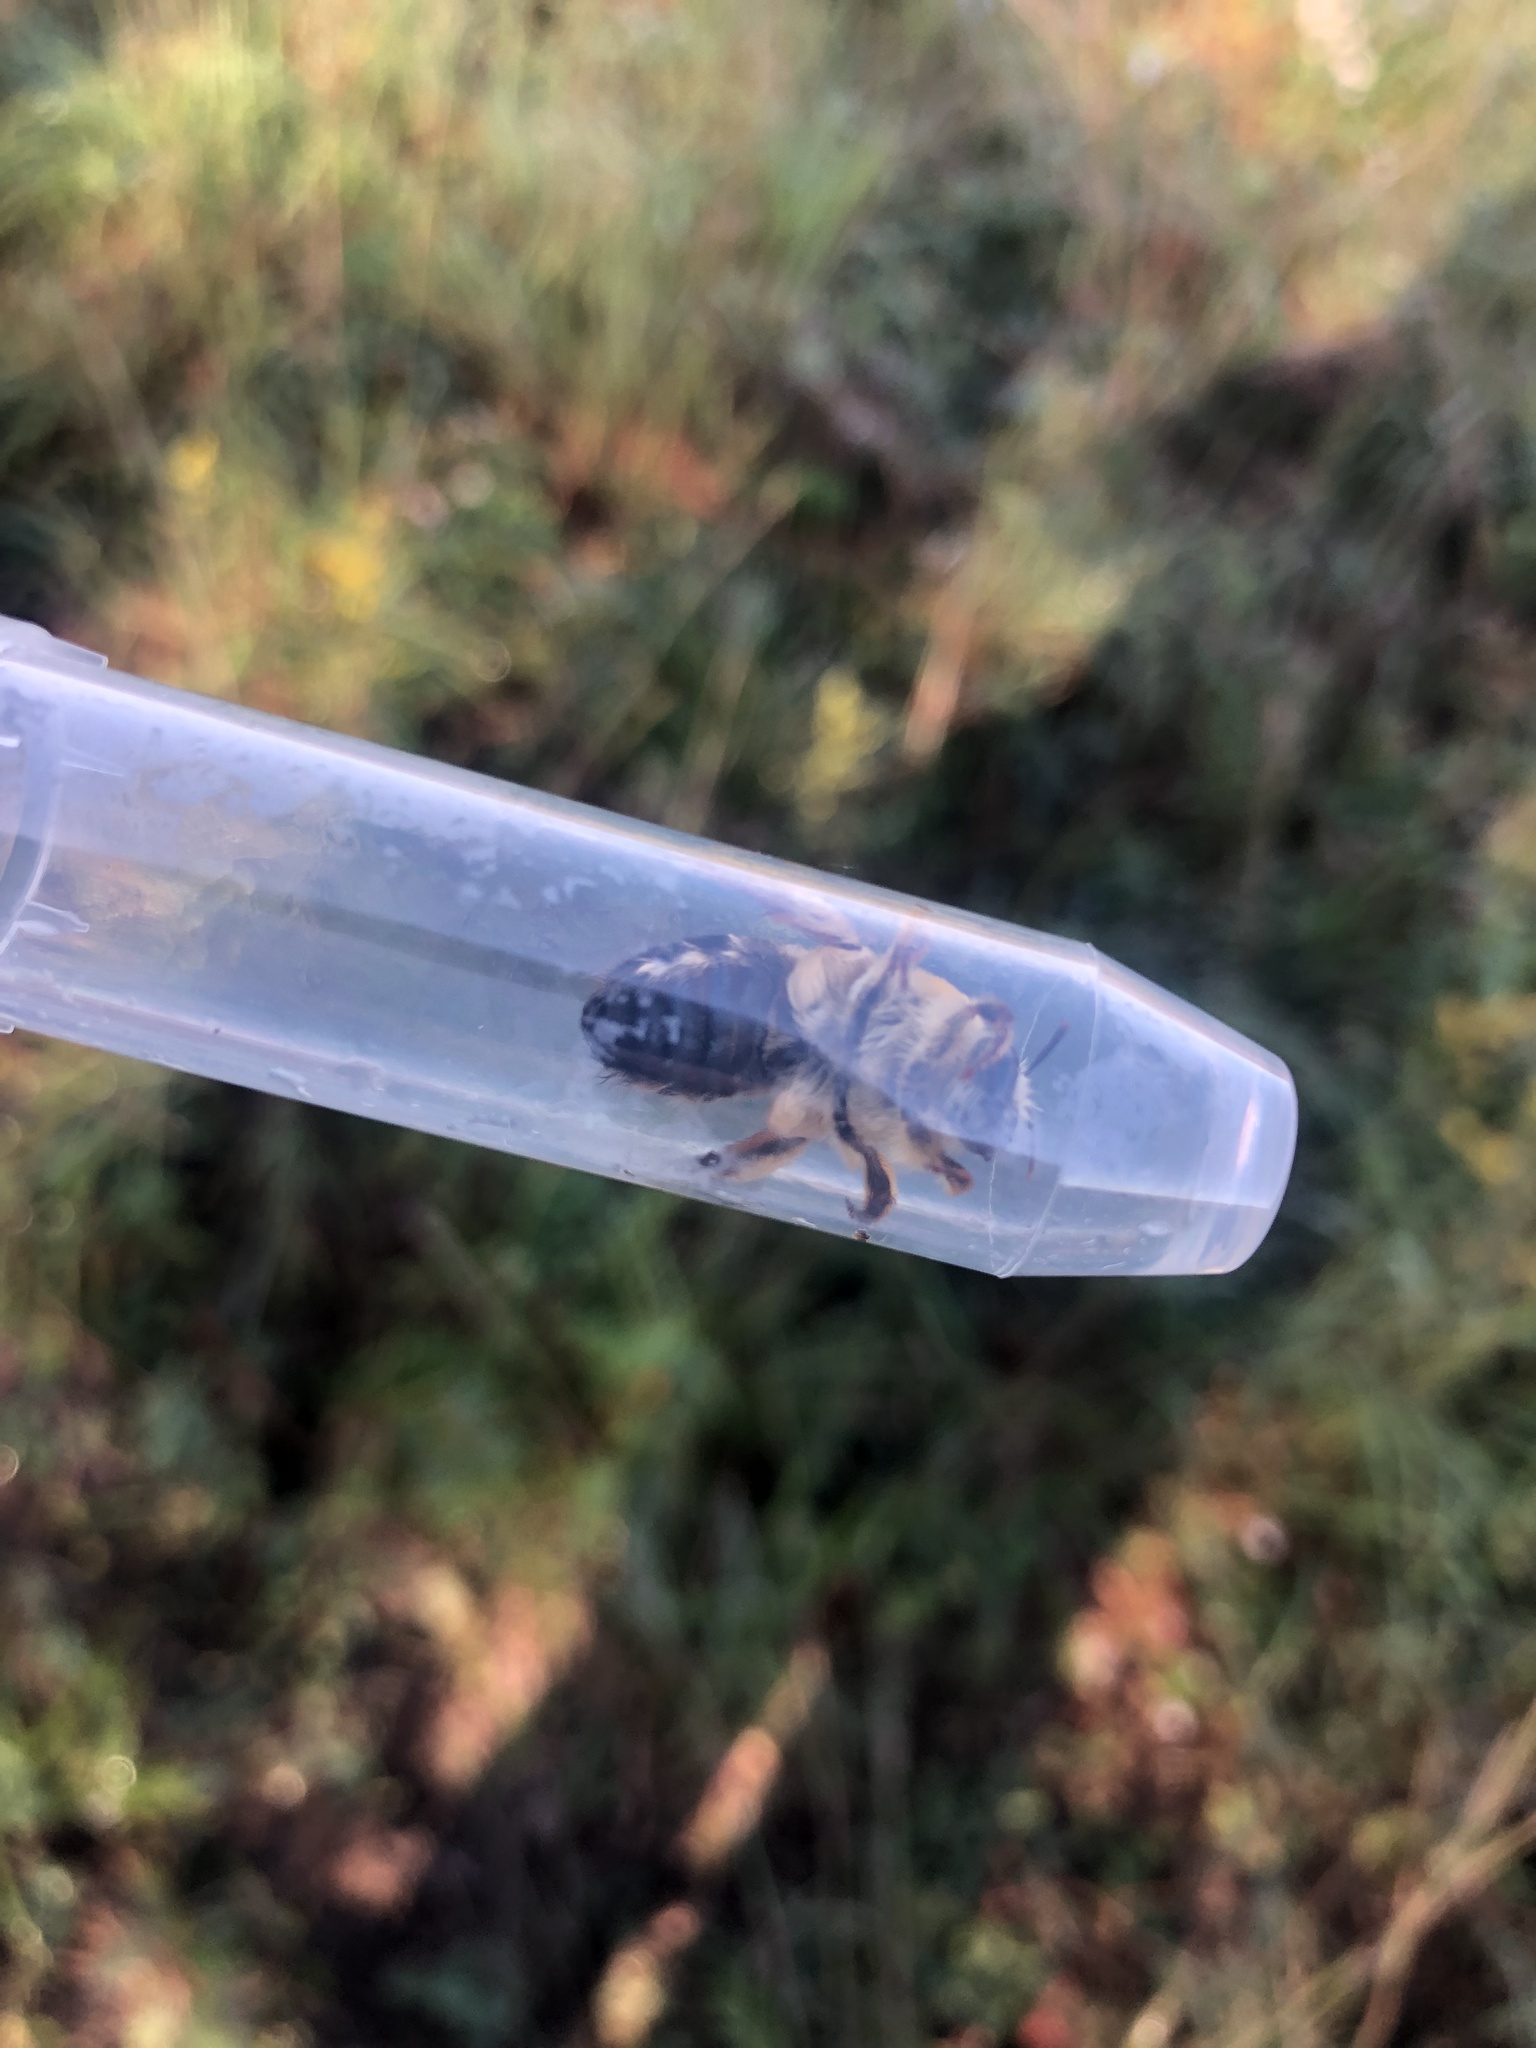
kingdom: Animalia
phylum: Arthropoda
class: Insecta
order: Hymenoptera
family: Colletidae
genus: Caupolicana
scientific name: Caupolicana electa
